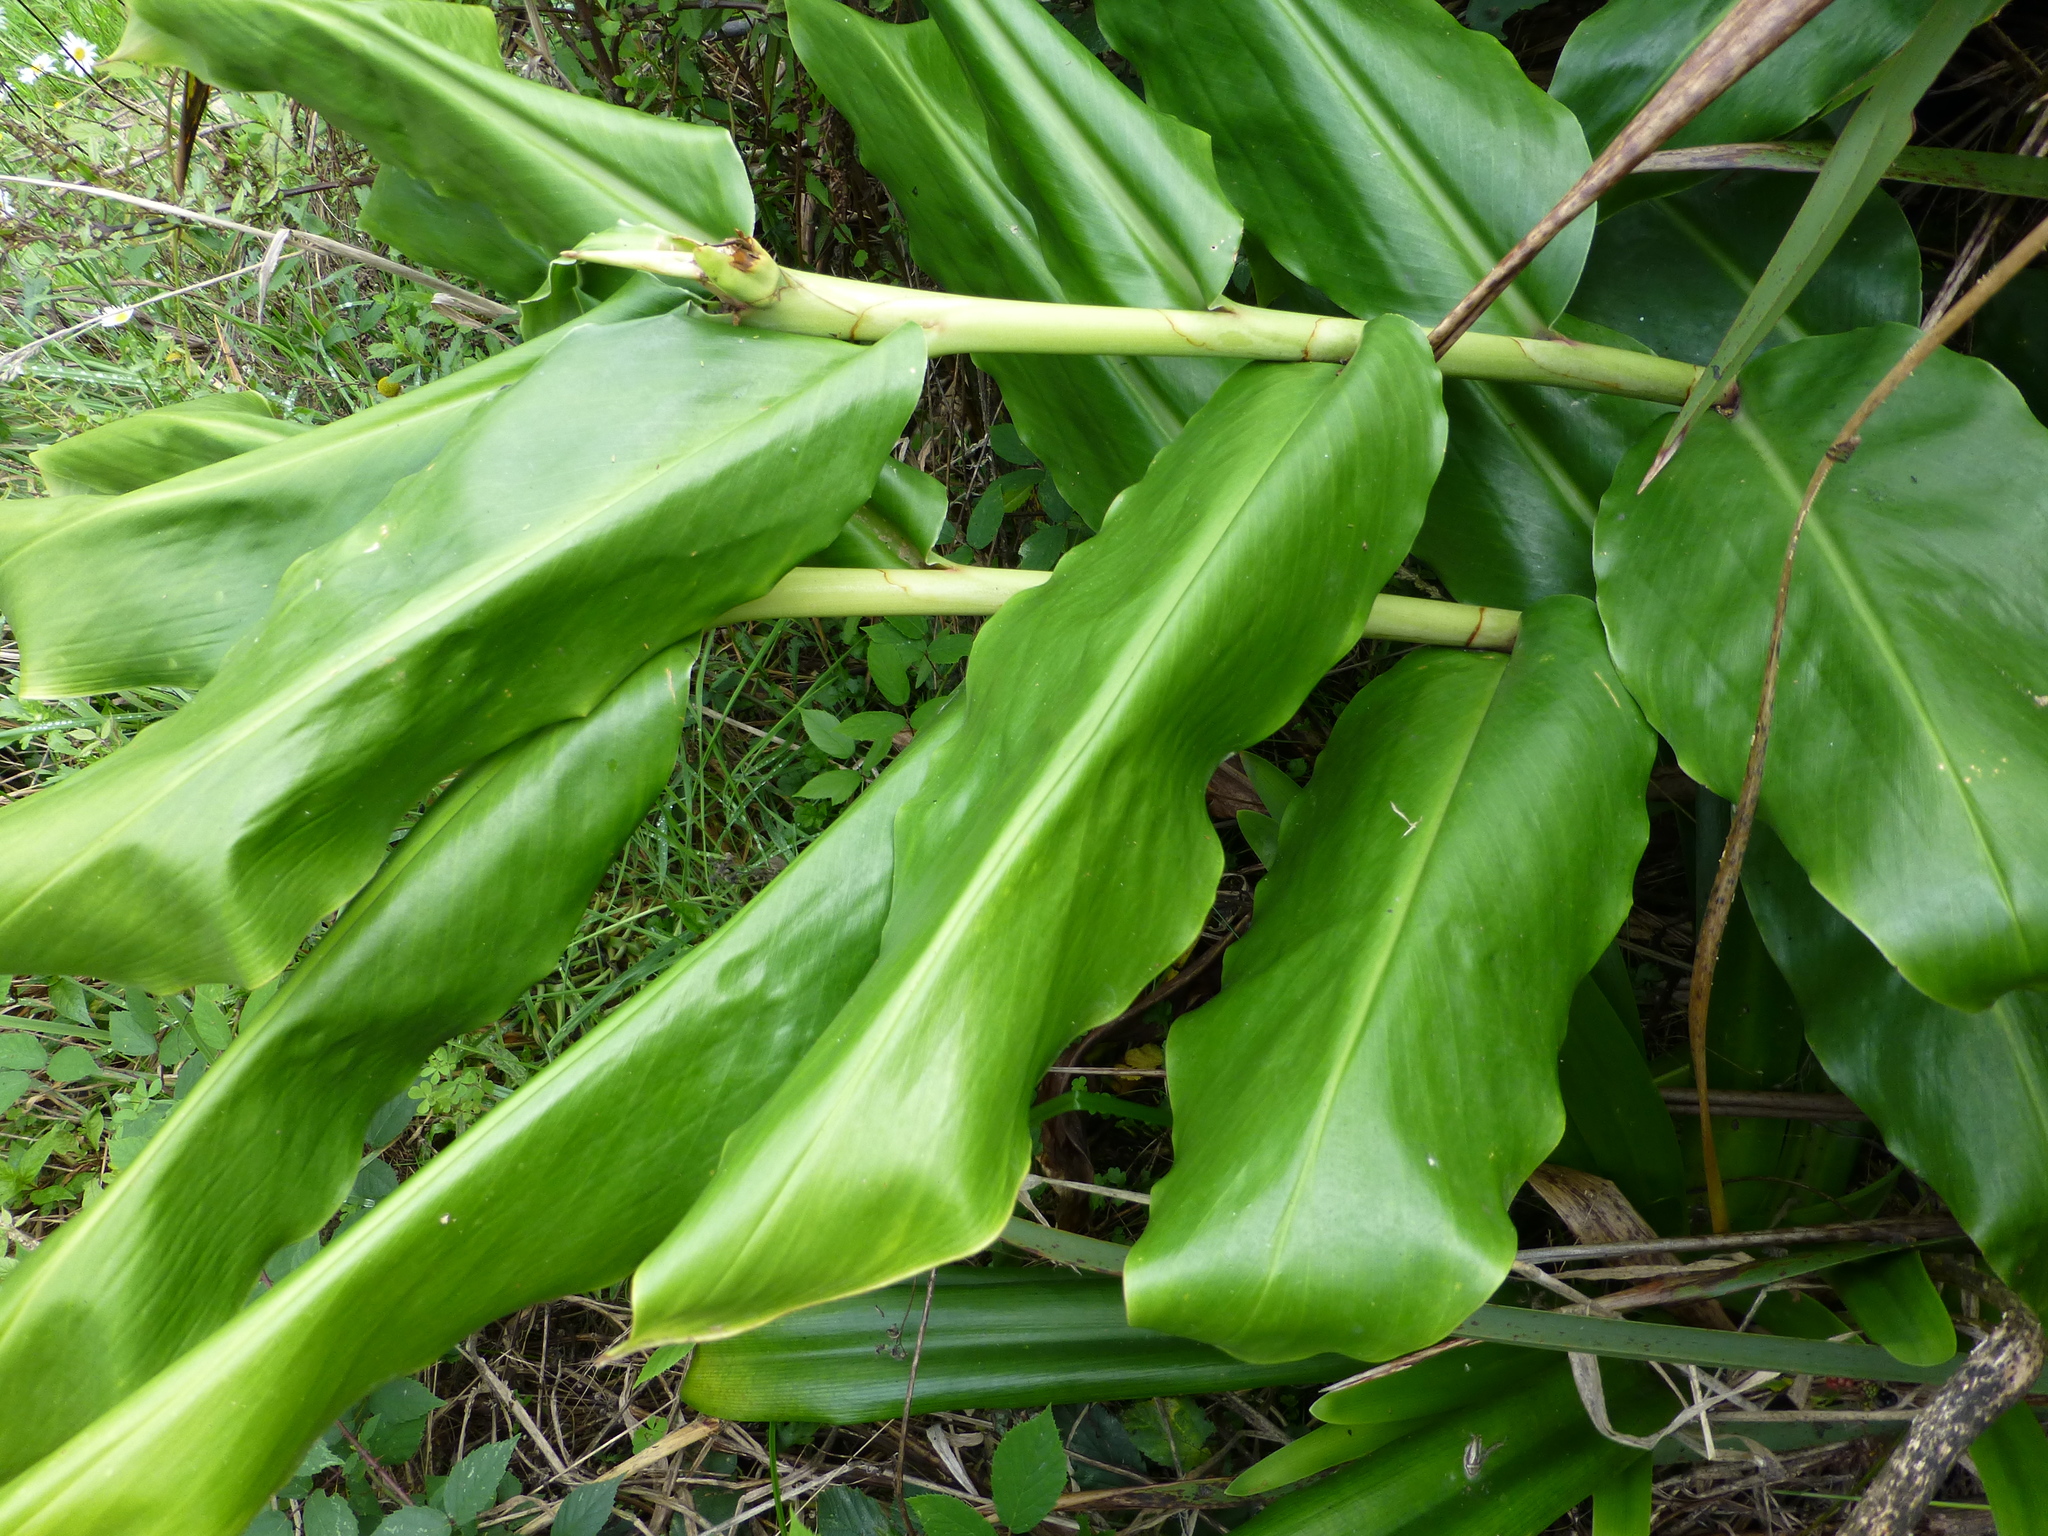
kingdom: Plantae
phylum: Tracheophyta
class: Liliopsida
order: Zingiberales
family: Zingiberaceae
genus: Hedychium
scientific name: Hedychium gardnerianum
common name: Himalayan ginger
